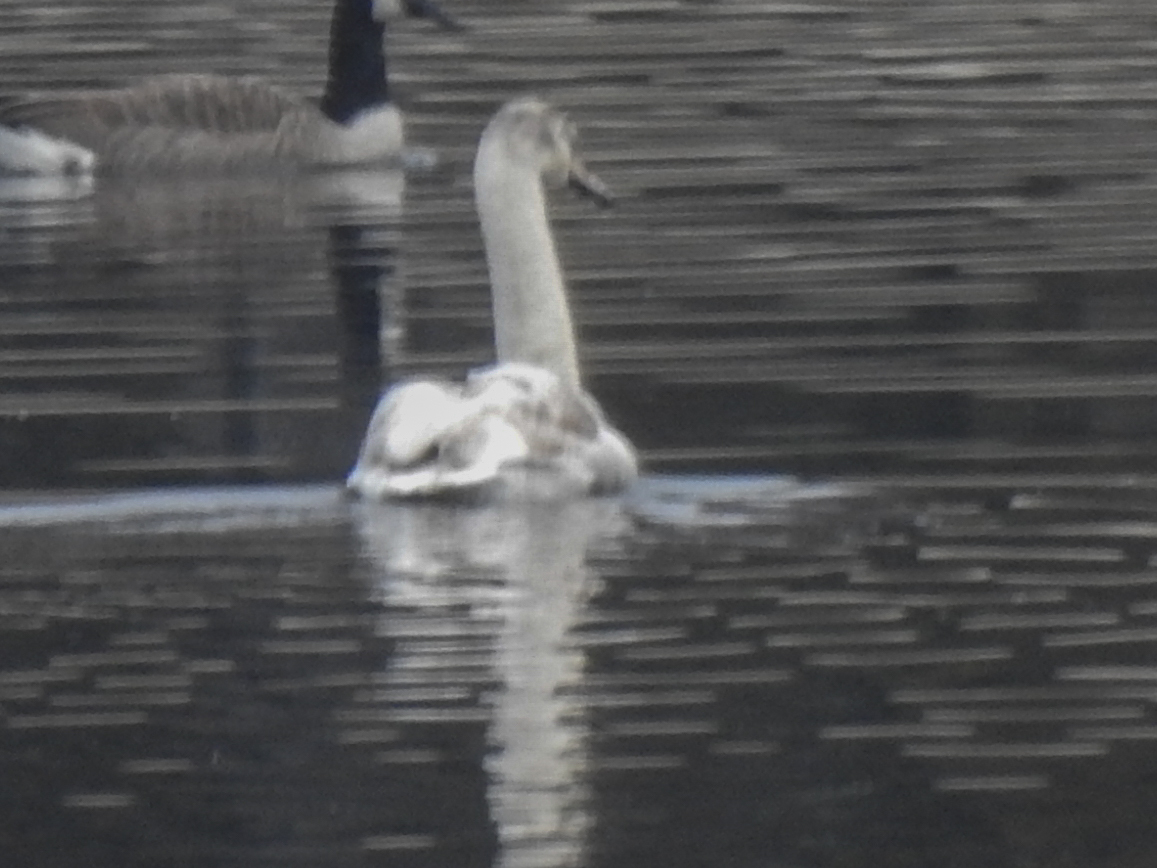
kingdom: Animalia
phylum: Chordata
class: Aves
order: Anseriformes
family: Anatidae
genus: Cygnus
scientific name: Cygnus olor
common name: Mute swan
